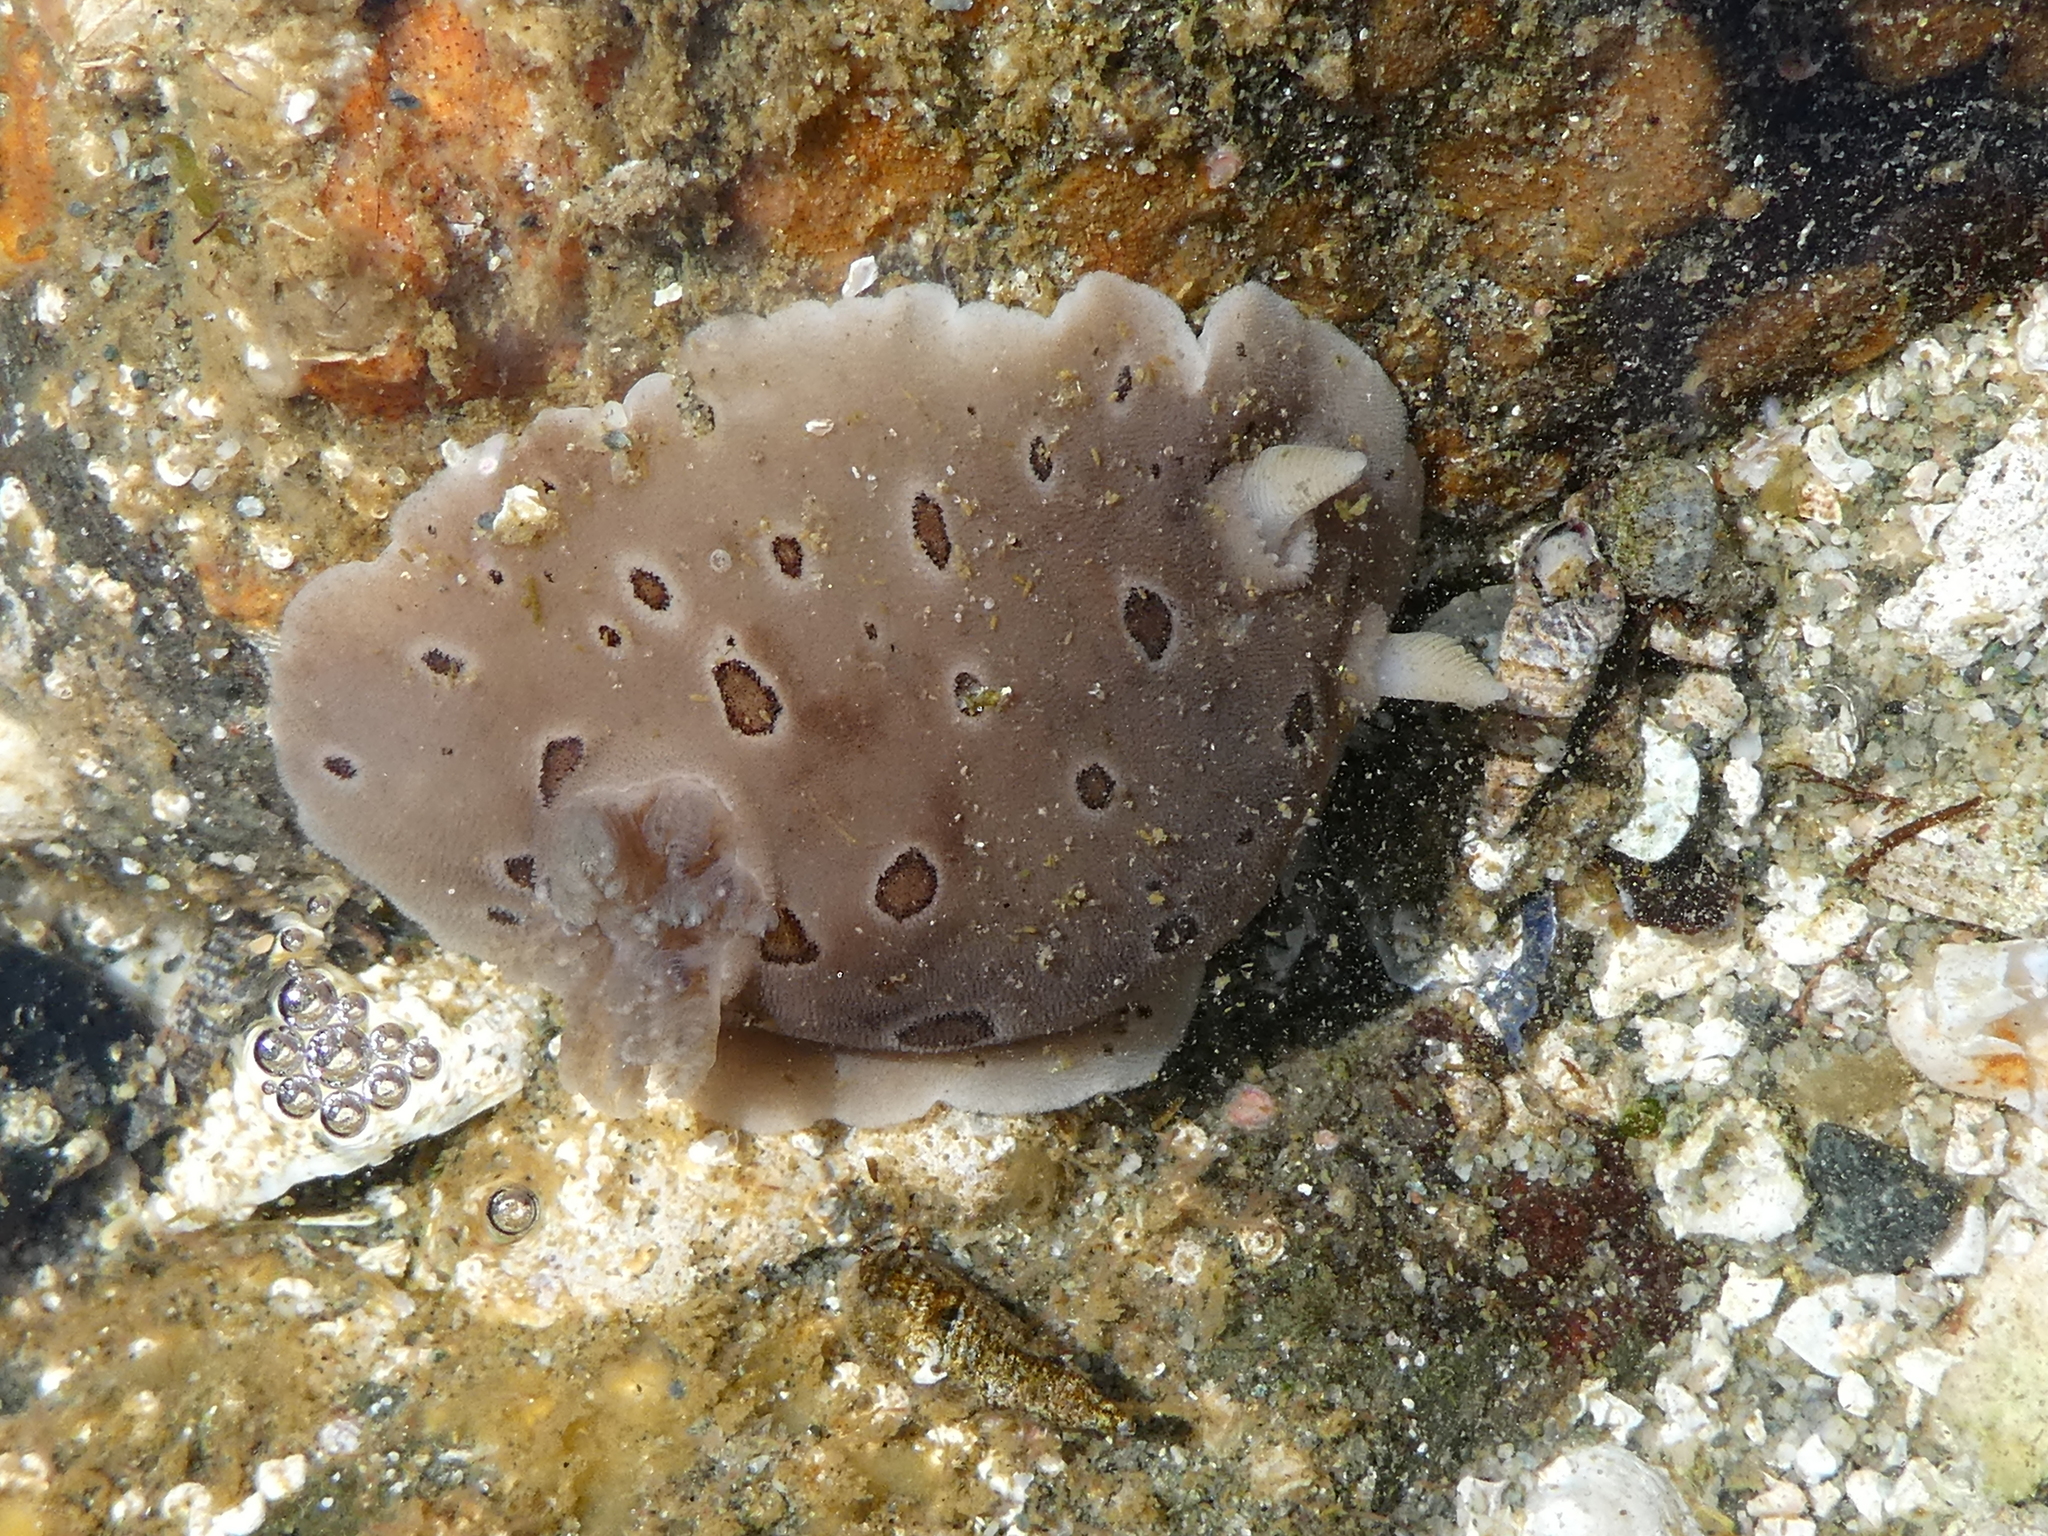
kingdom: Animalia
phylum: Mollusca
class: Gastropoda
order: Nudibranchia
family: Discodorididae
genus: Diaulula
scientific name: Diaulula odonoghuei
